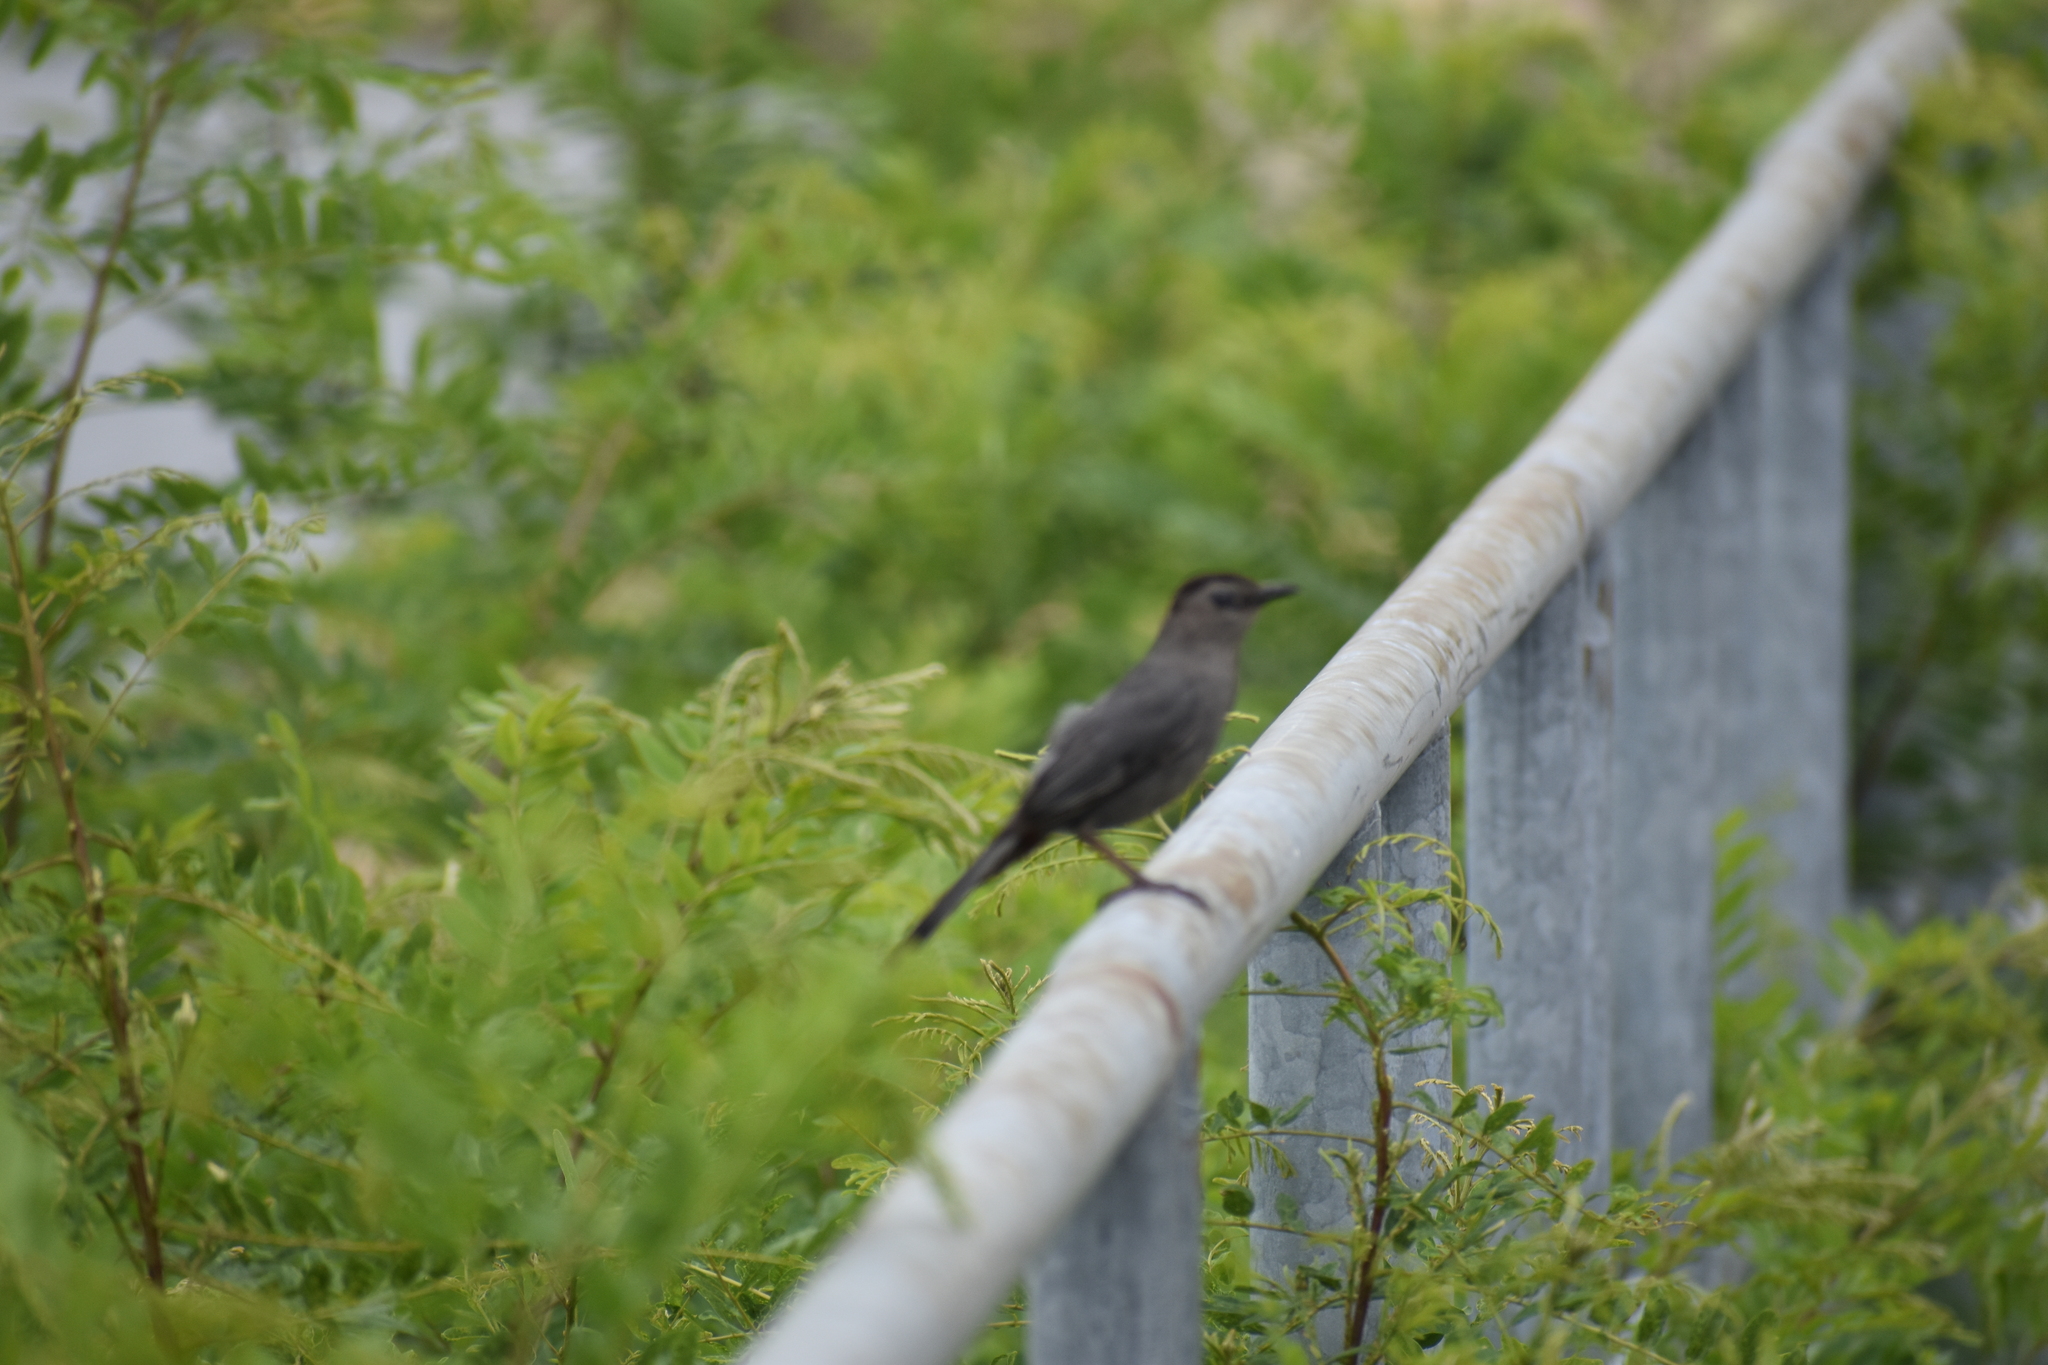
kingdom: Animalia
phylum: Chordata
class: Aves
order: Passeriformes
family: Mimidae
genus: Dumetella
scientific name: Dumetella carolinensis
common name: Gray catbird
